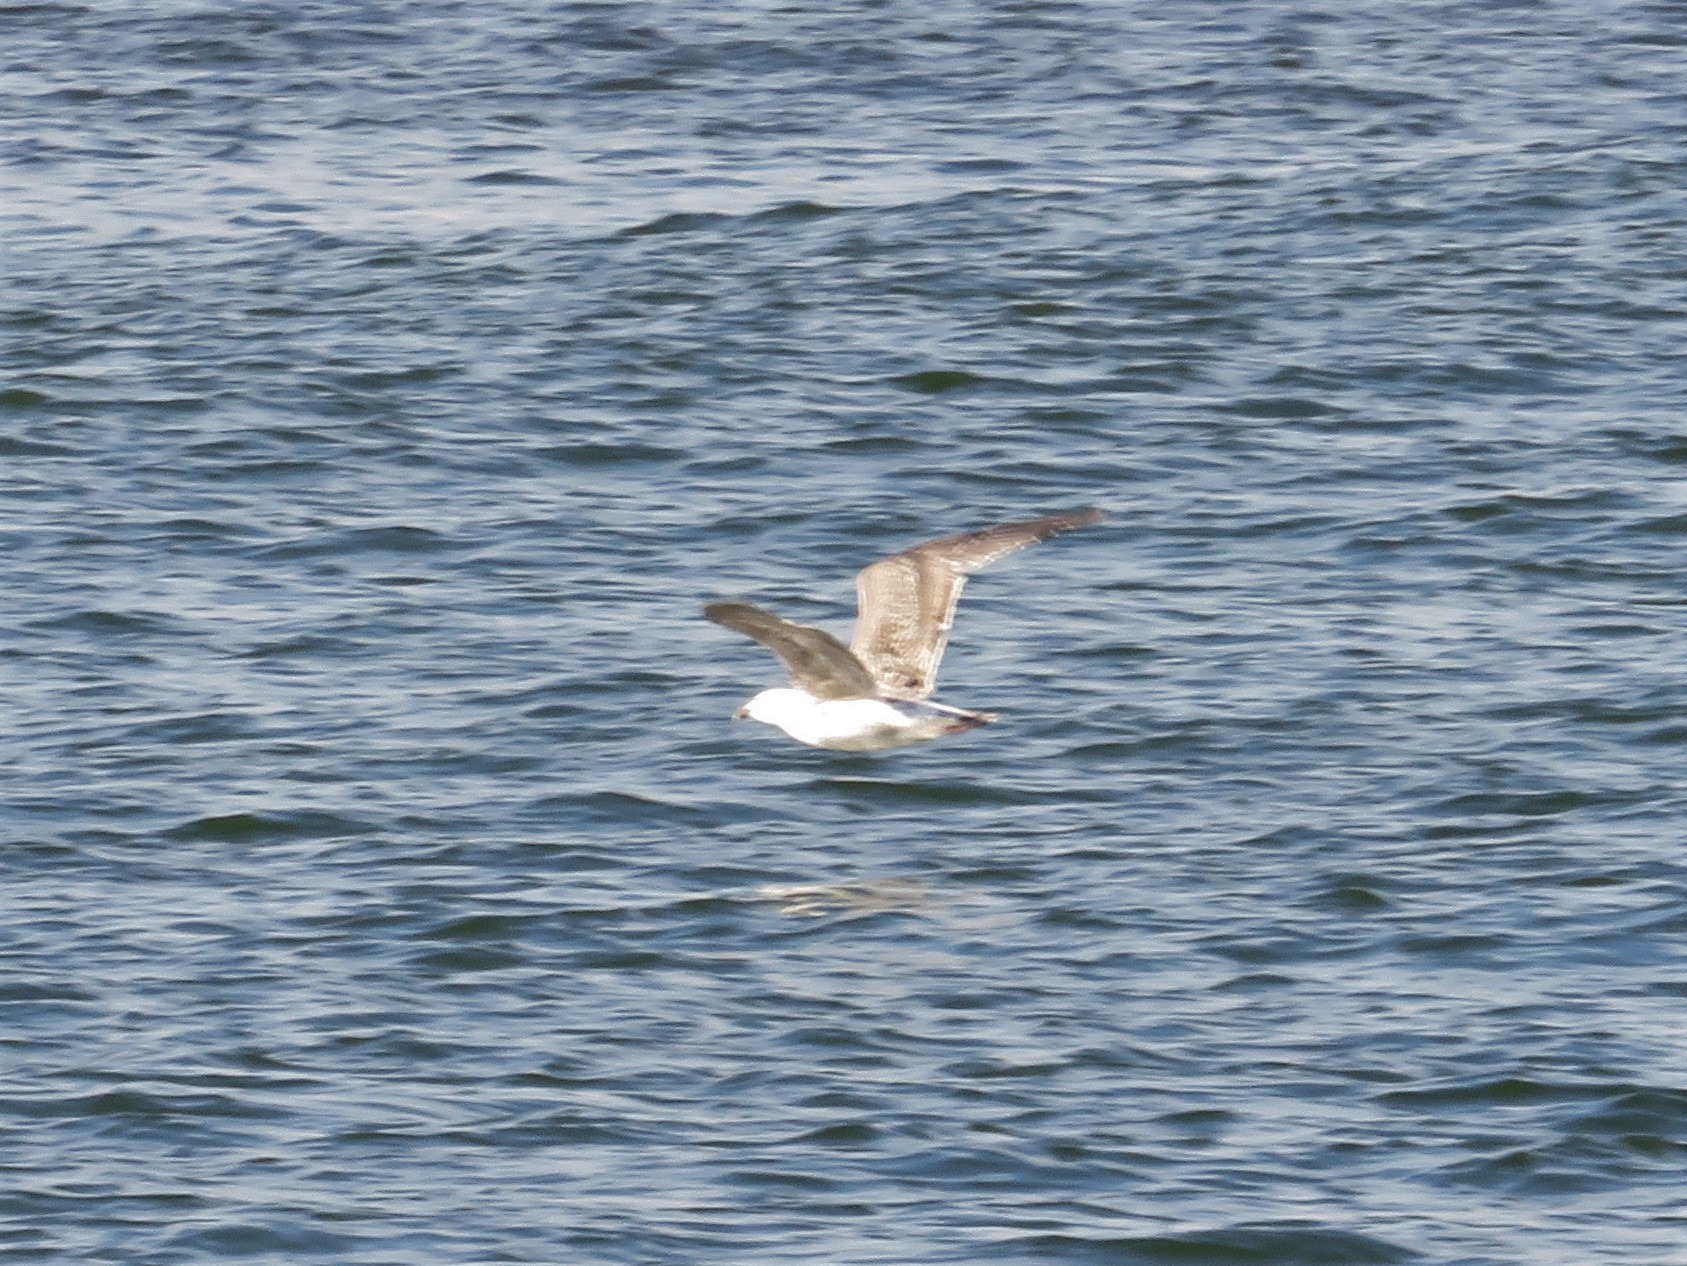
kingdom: Animalia
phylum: Chordata
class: Aves
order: Charadriiformes
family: Laridae
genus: Larus
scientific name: Larus marinus
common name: Great black-backed gull
